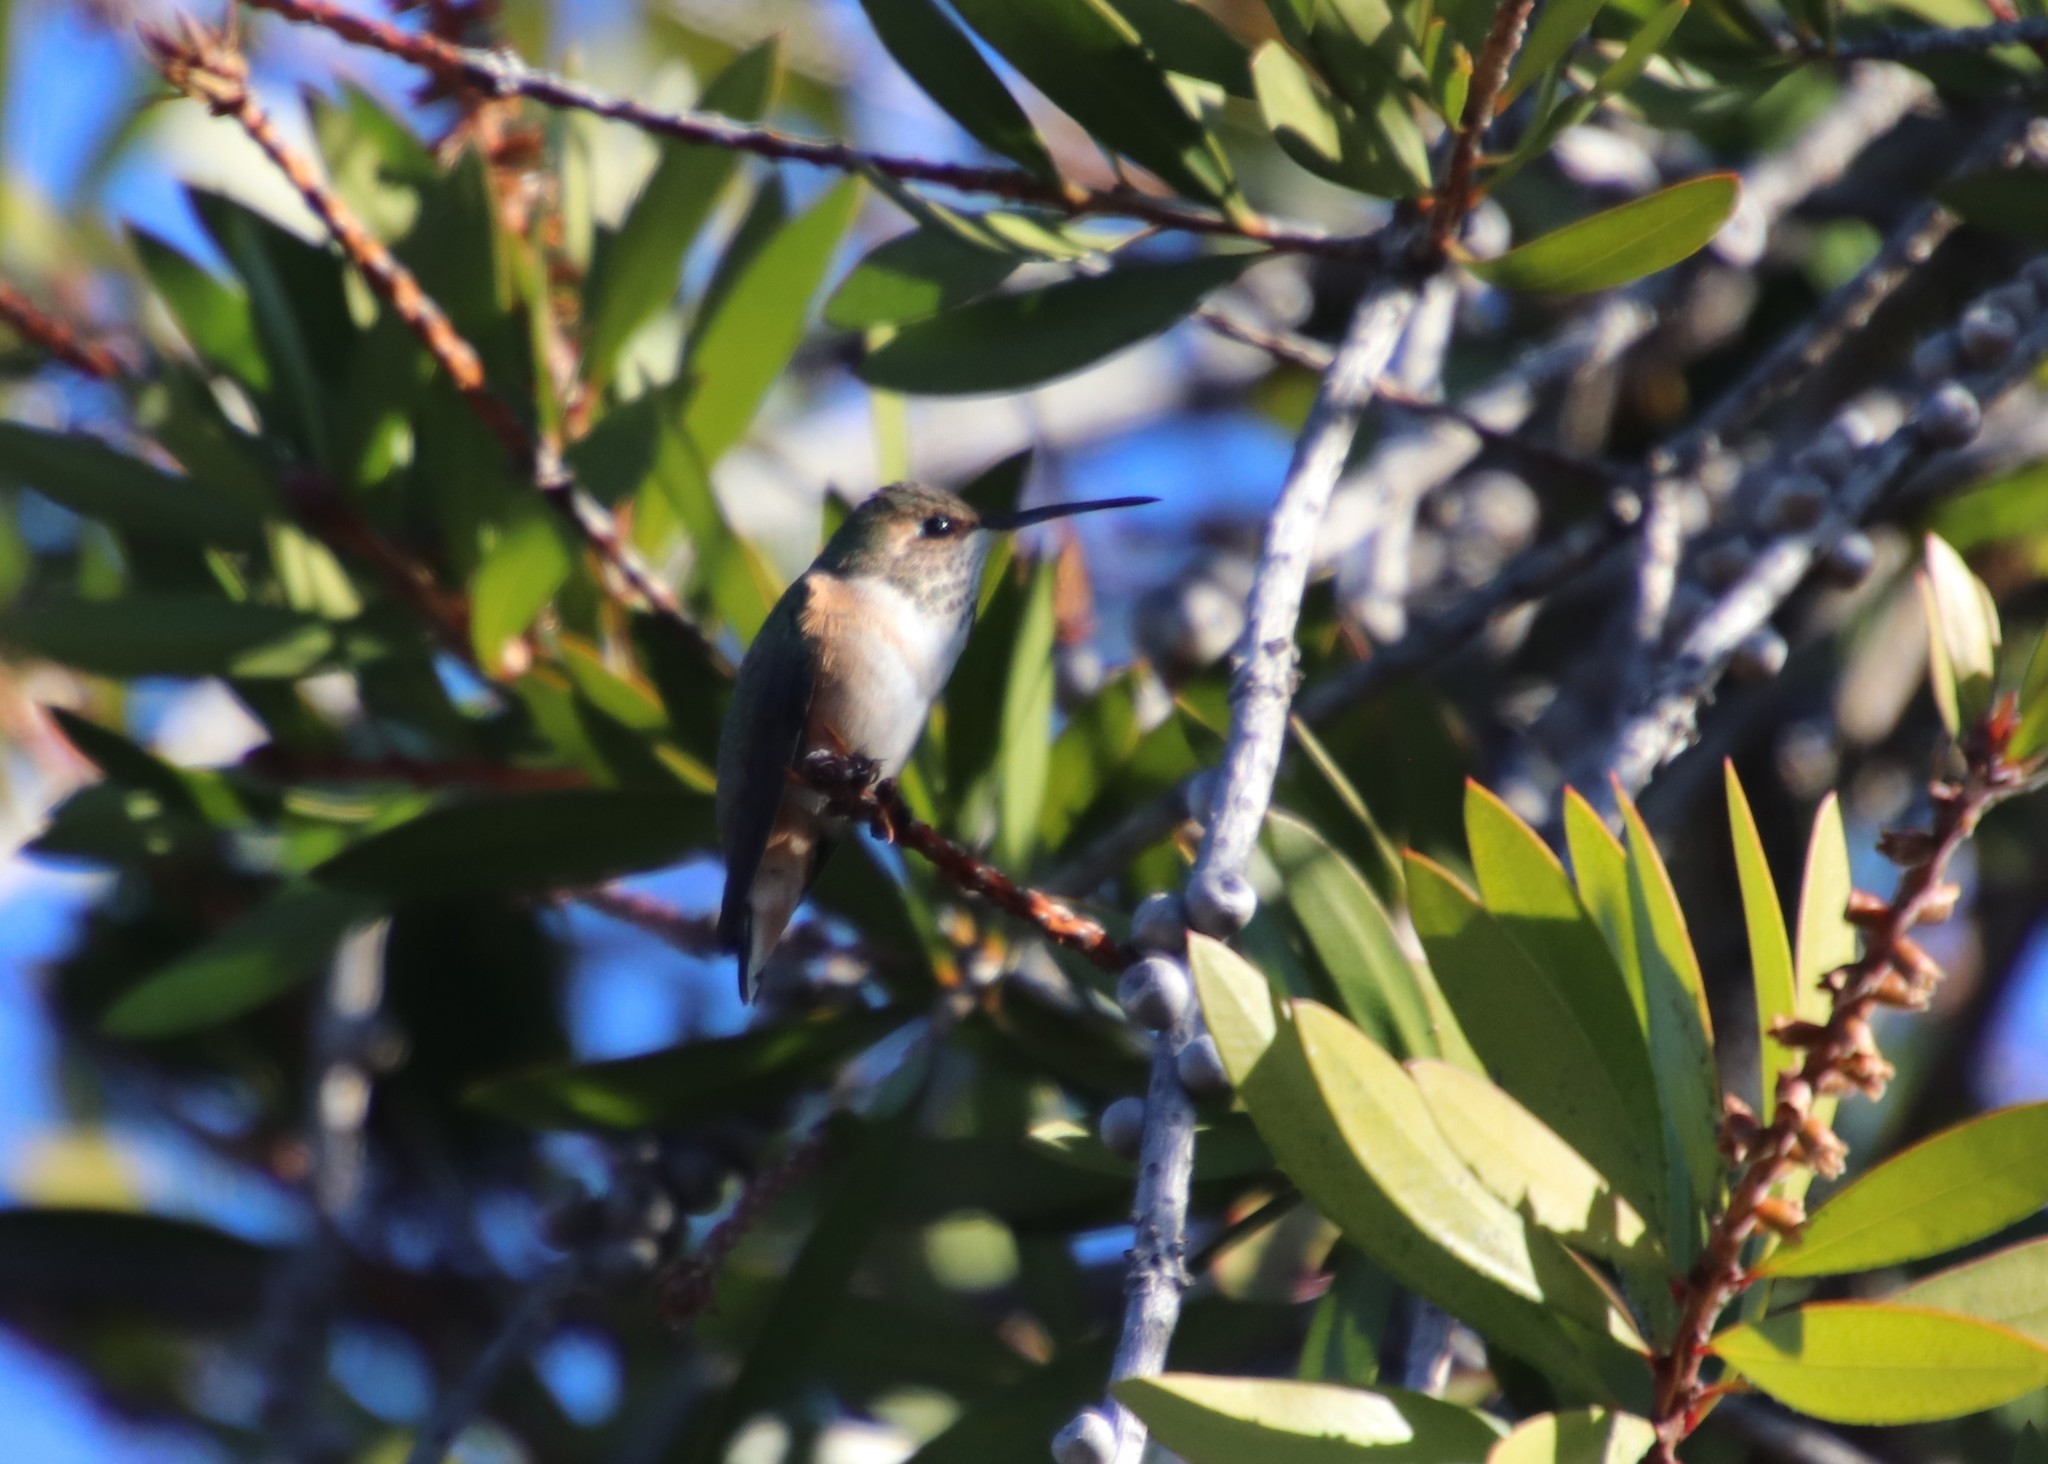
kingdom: Animalia
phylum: Chordata
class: Aves
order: Apodiformes
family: Trochilidae
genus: Selasphorus
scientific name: Selasphorus
